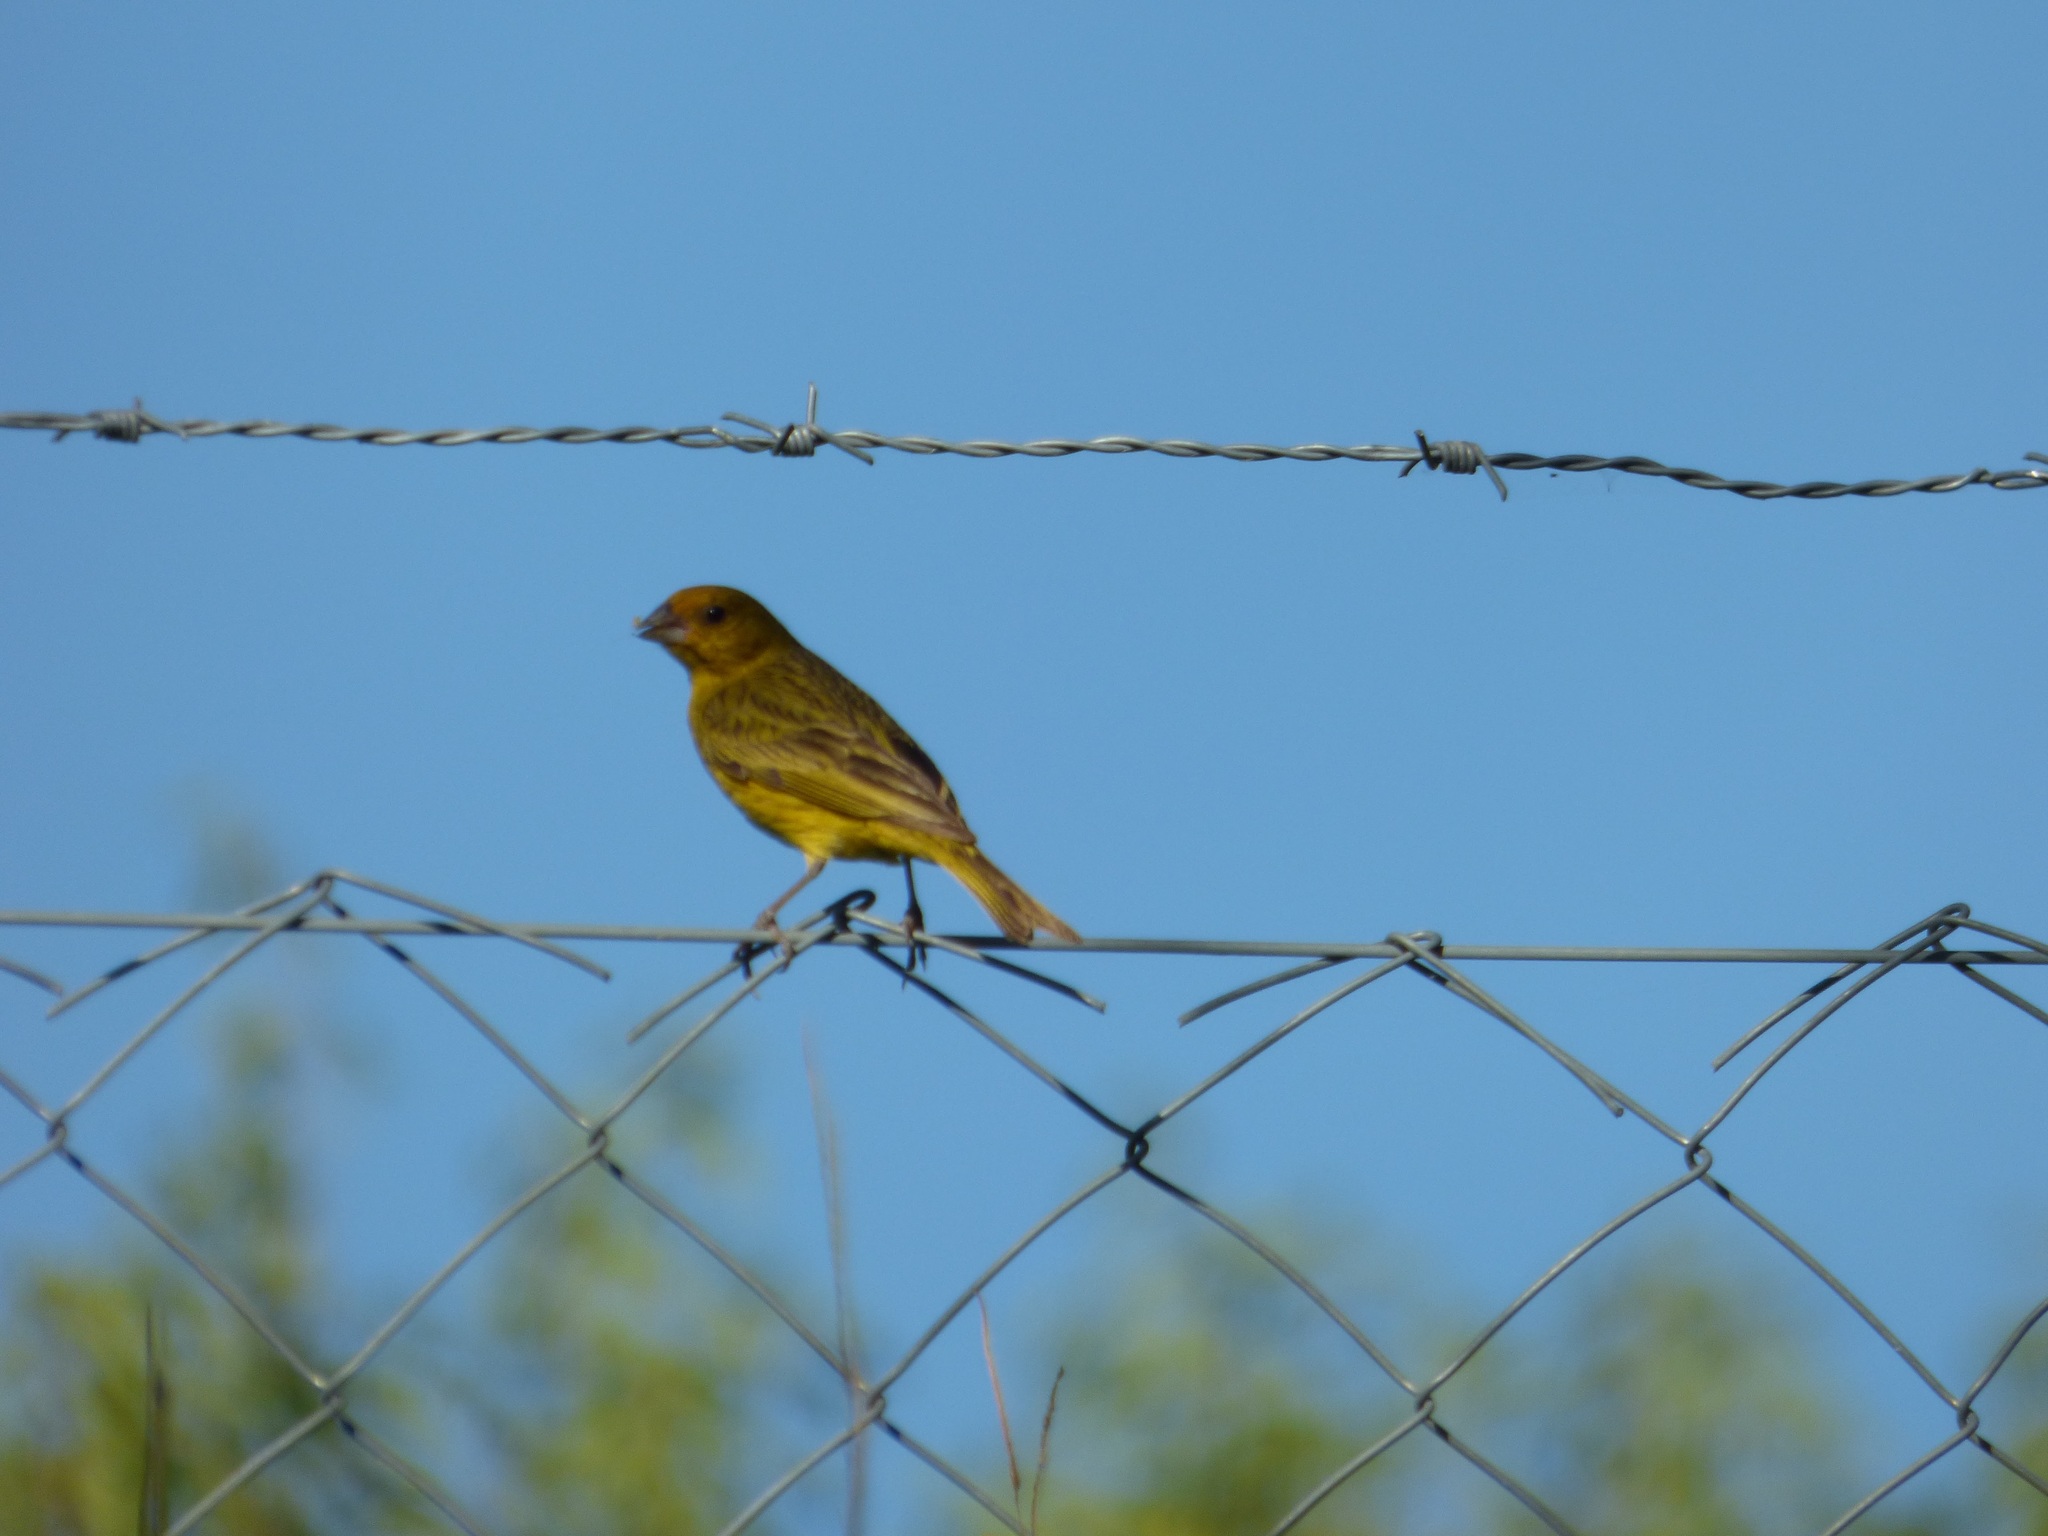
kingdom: Animalia
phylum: Chordata
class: Aves
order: Passeriformes
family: Thraupidae
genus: Sicalis
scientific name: Sicalis flaveola
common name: Saffron finch
